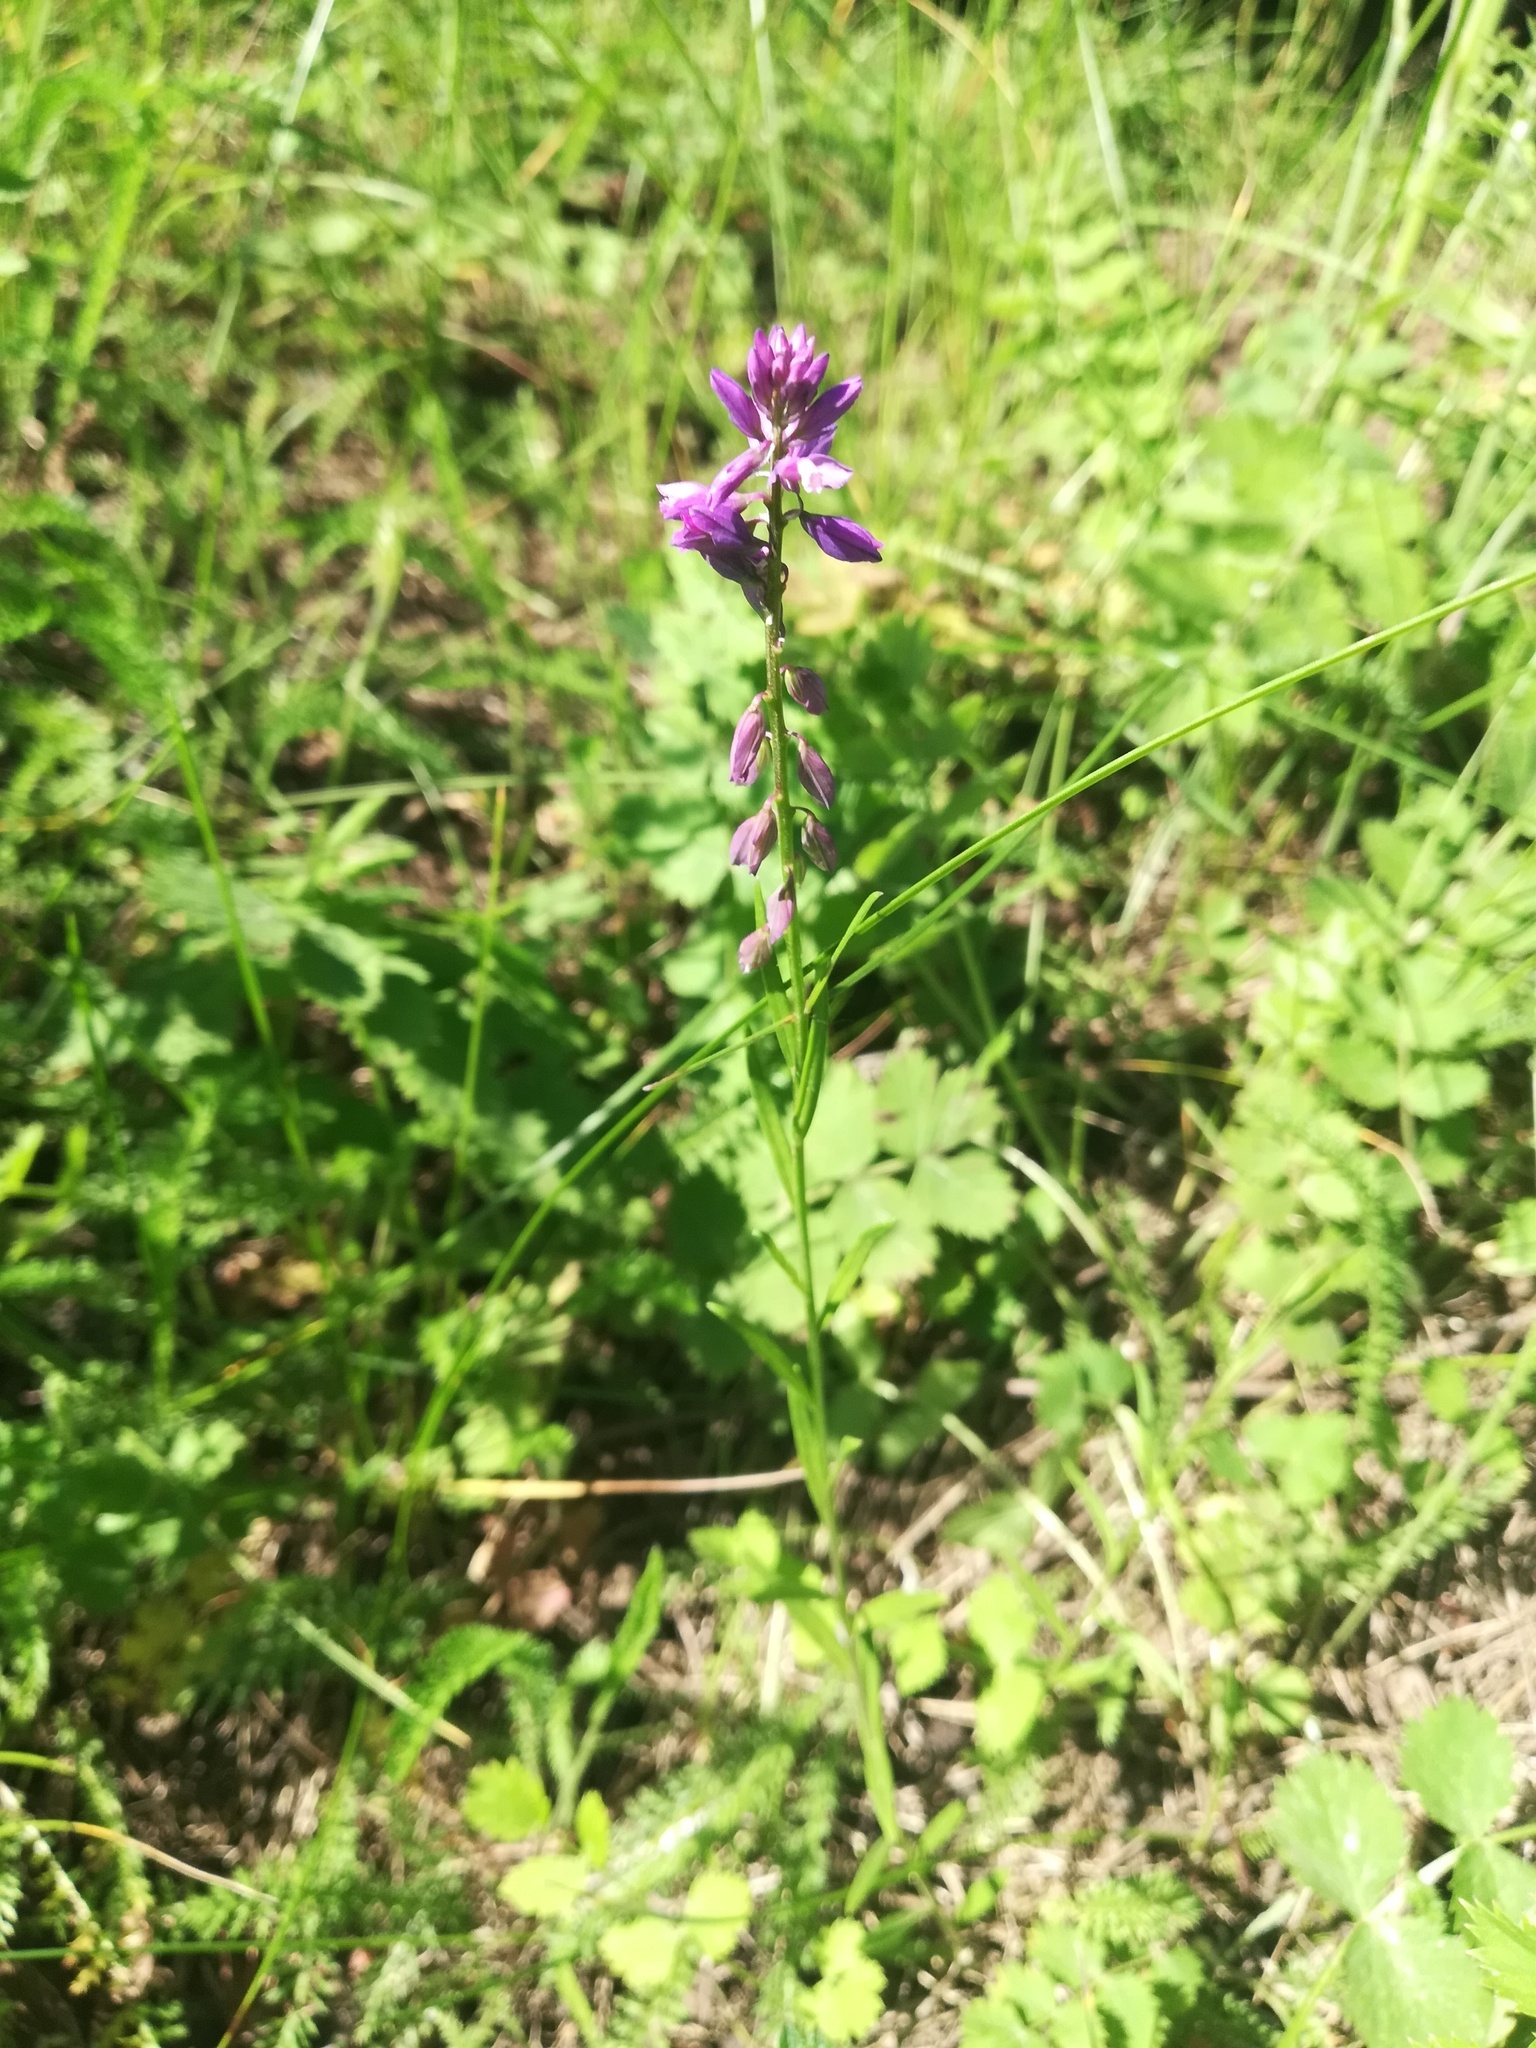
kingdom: Plantae
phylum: Tracheophyta
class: Magnoliopsida
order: Fabales
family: Polygalaceae
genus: Polygala
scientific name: Polygala comosa
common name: Tufted milkwort
